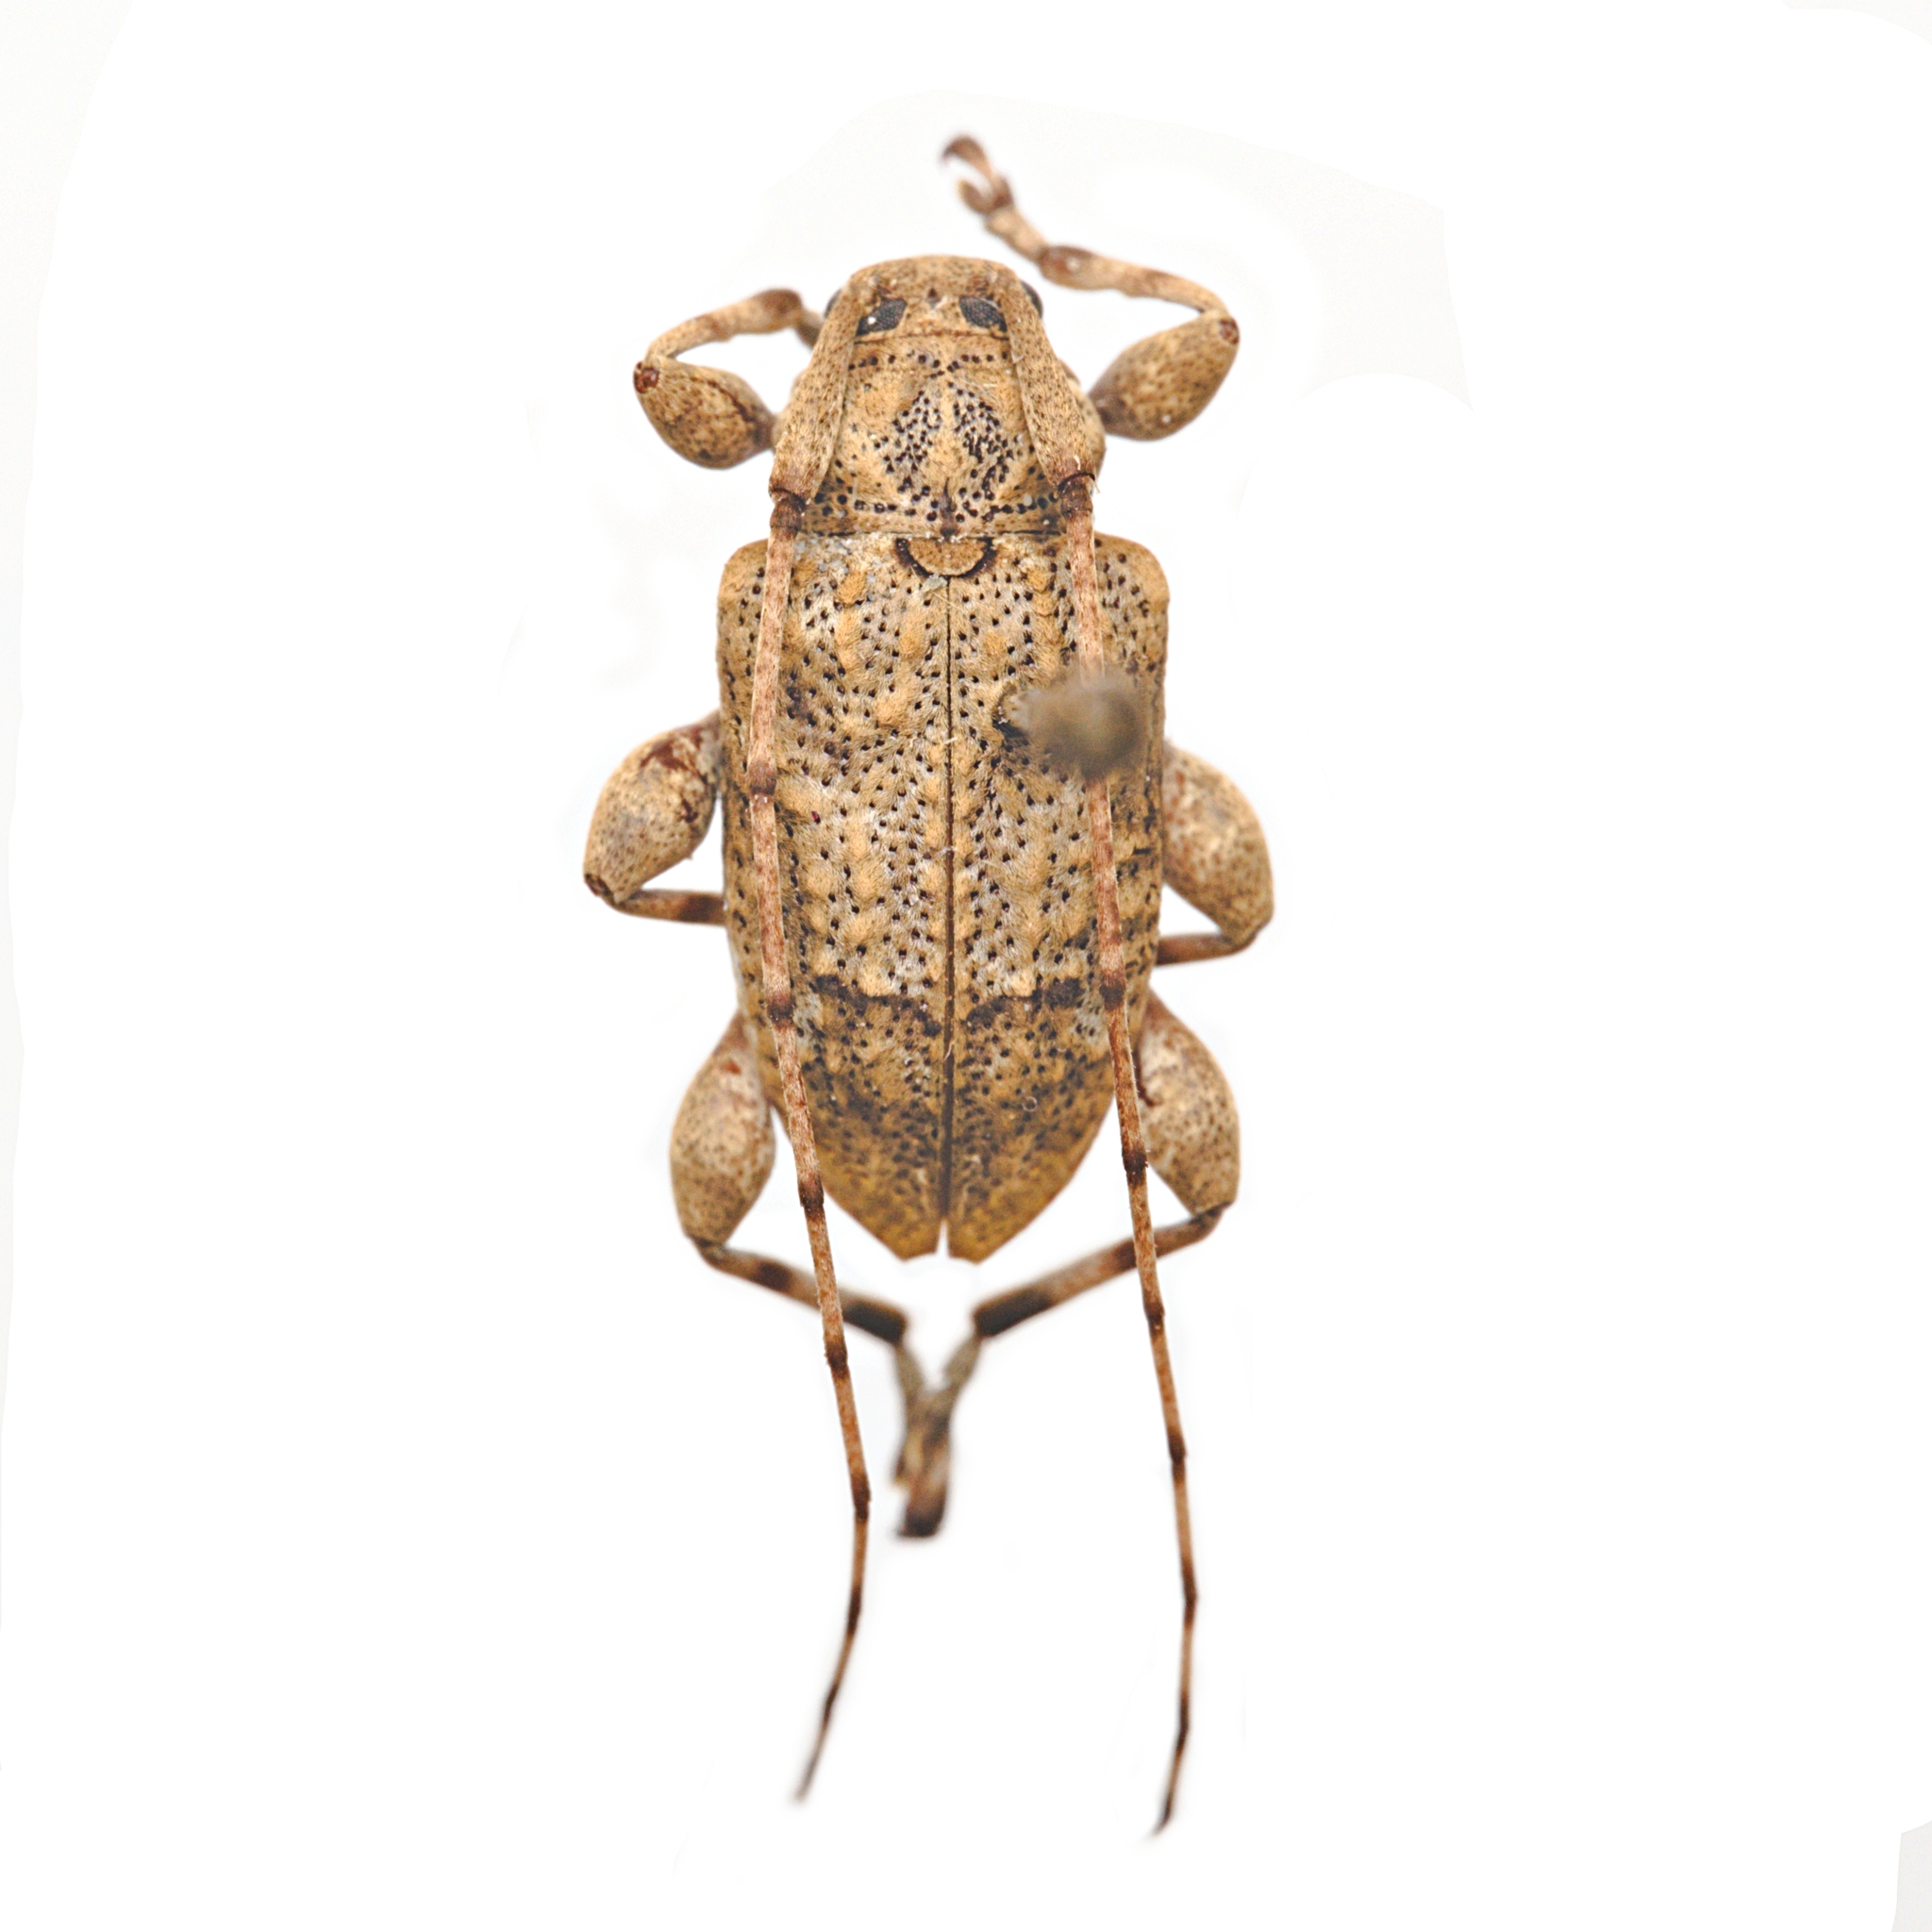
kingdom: Animalia
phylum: Arthropoda
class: Insecta
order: Coleoptera
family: Cerambycidae
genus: Leptostylopsis
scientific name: Leptostylopsis terraecolor
